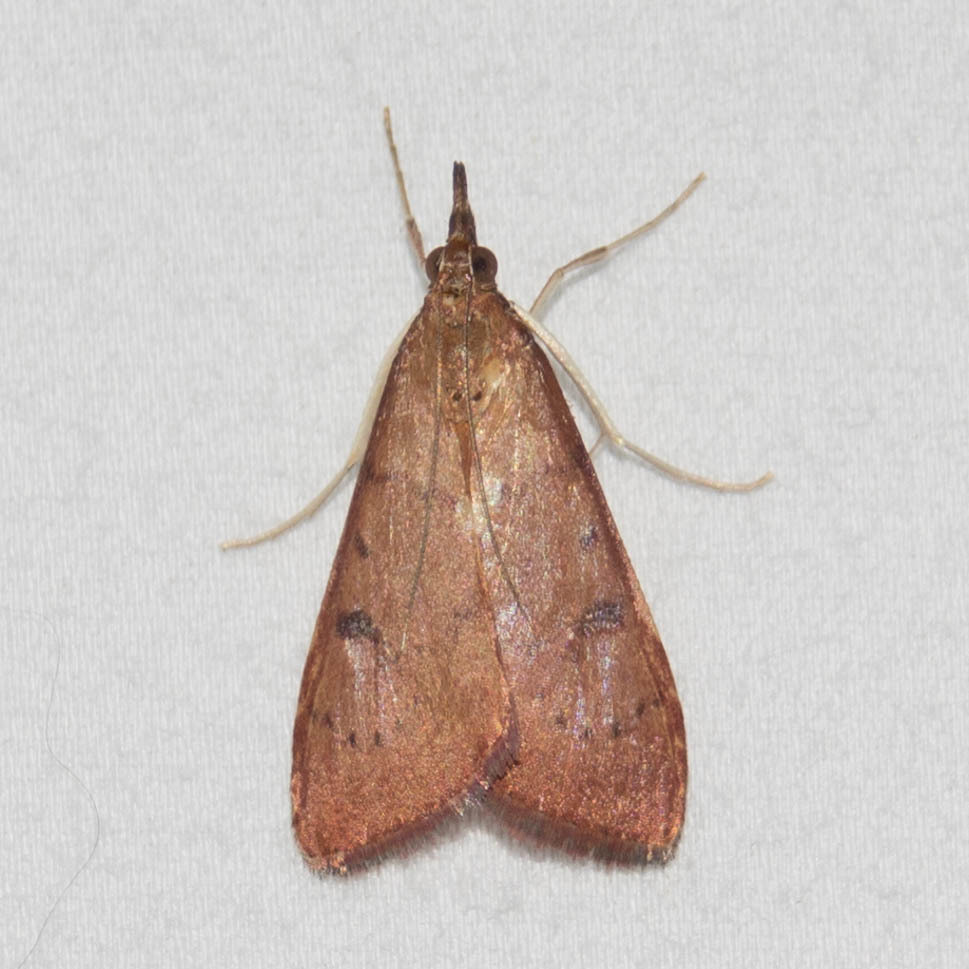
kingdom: Animalia
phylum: Arthropoda
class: Insecta
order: Lepidoptera
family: Crambidae
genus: Uresiphita
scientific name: Uresiphita reversalis
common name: Genista broom moth
